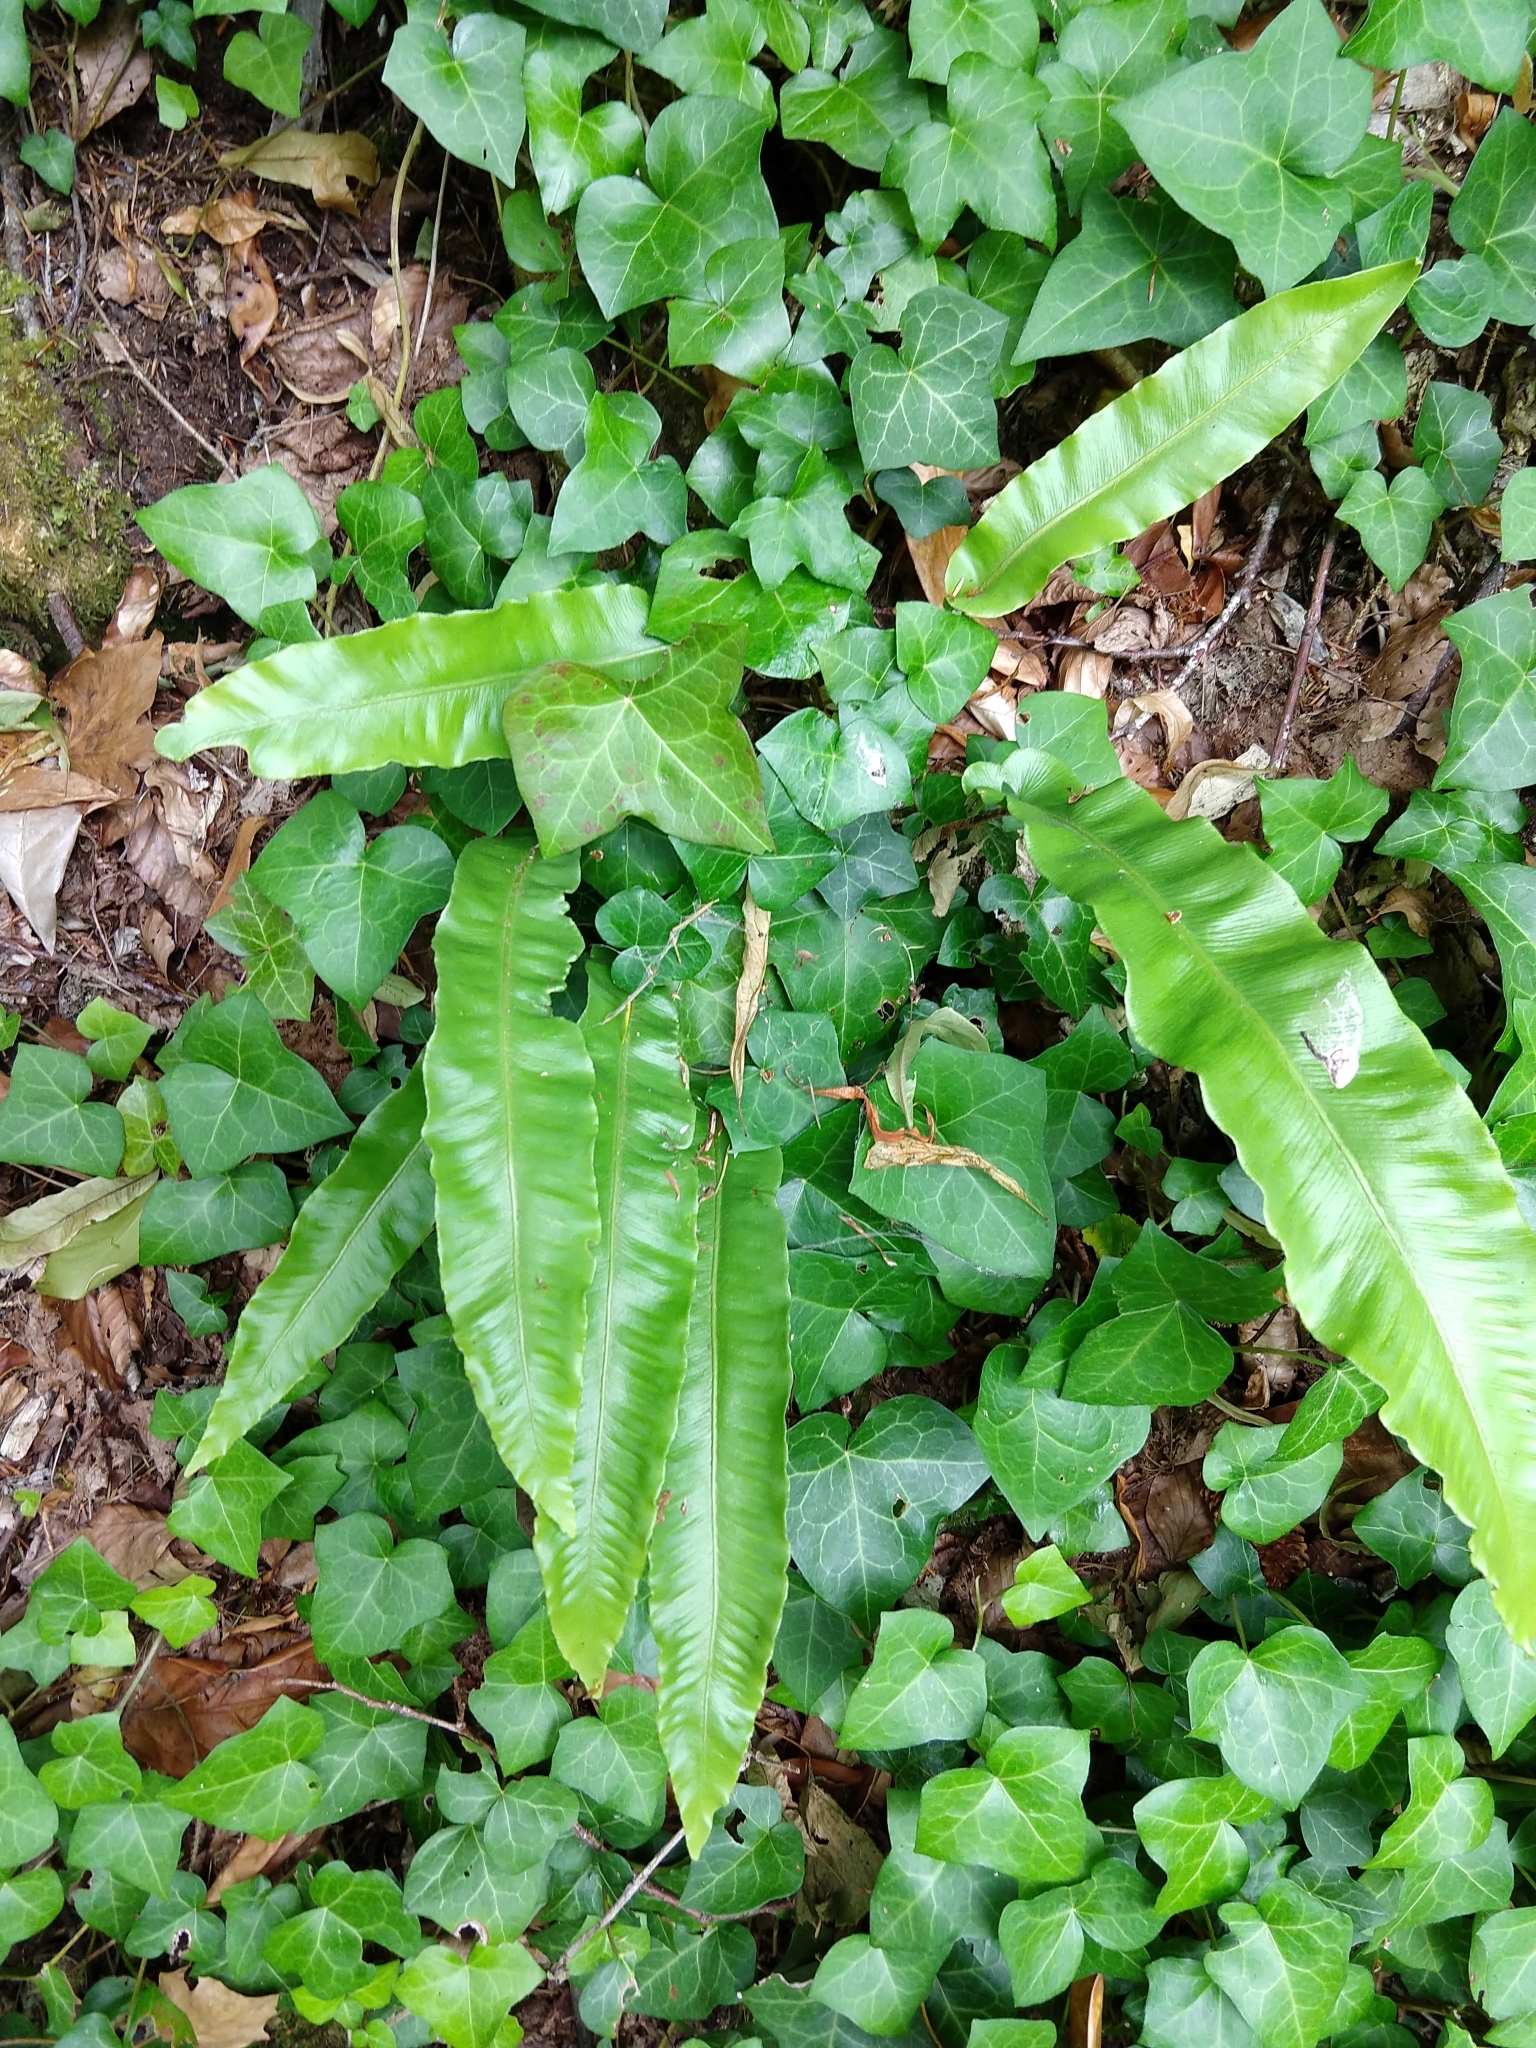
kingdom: Plantae
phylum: Tracheophyta
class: Polypodiopsida
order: Polypodiales
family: Aspleniaceae
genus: Asplenium
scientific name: Asplenium scolopendrium
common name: Hart's-tongue fern
